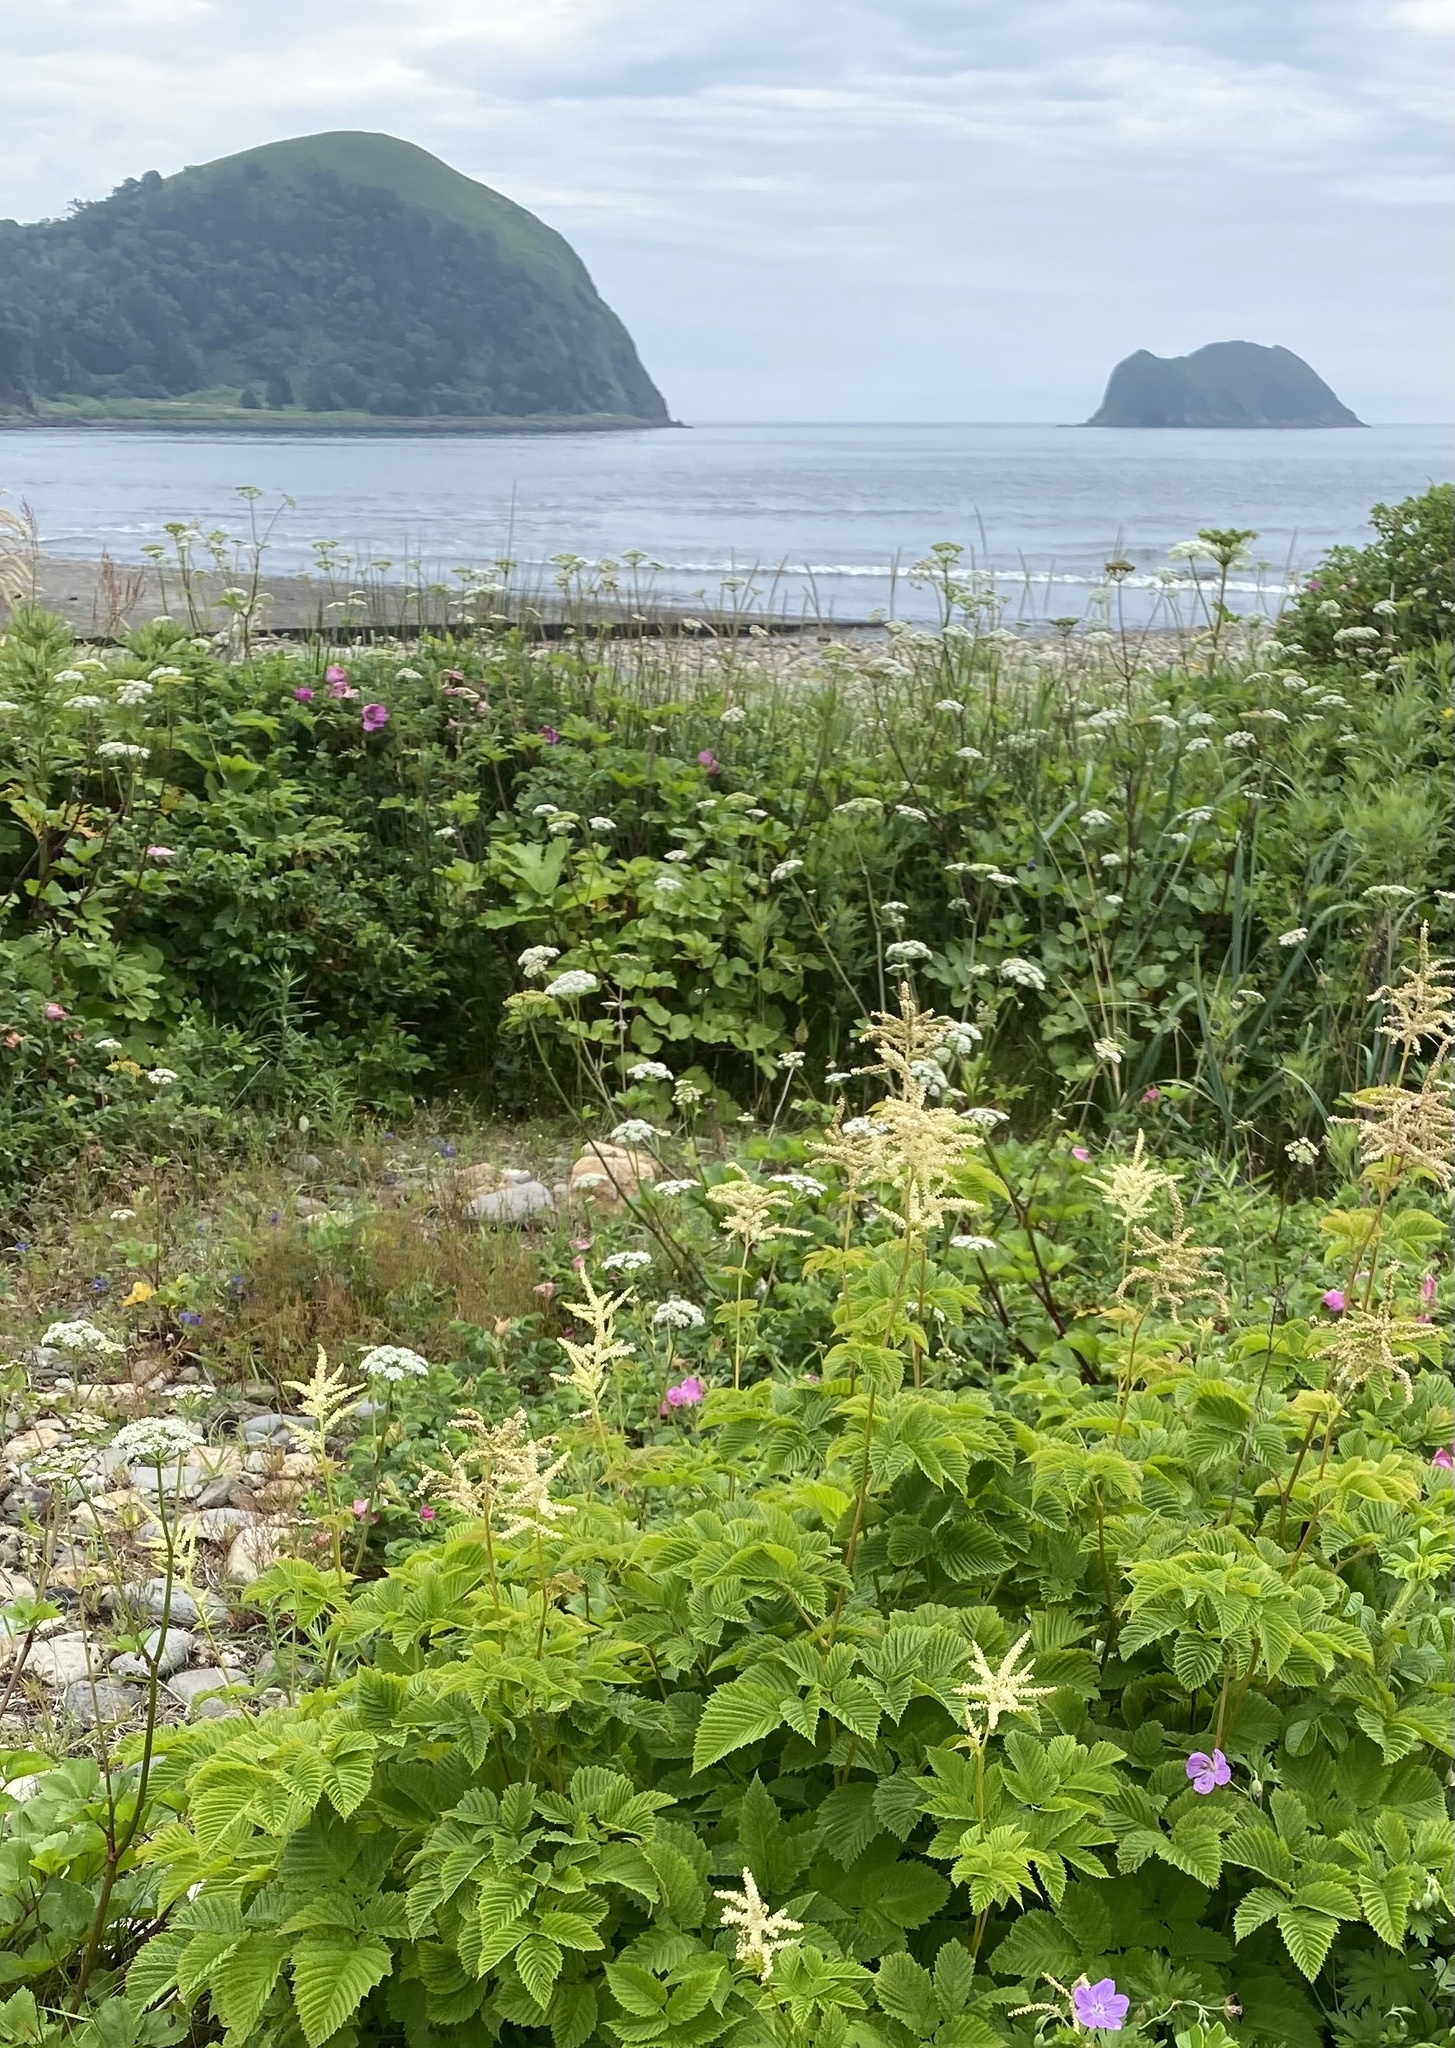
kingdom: Plantae
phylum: Tracheophyta
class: Magnoliopsida
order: Rosales
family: Rosaceae
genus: Aruncus
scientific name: Aruncus dioicus
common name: Buck's-beard
